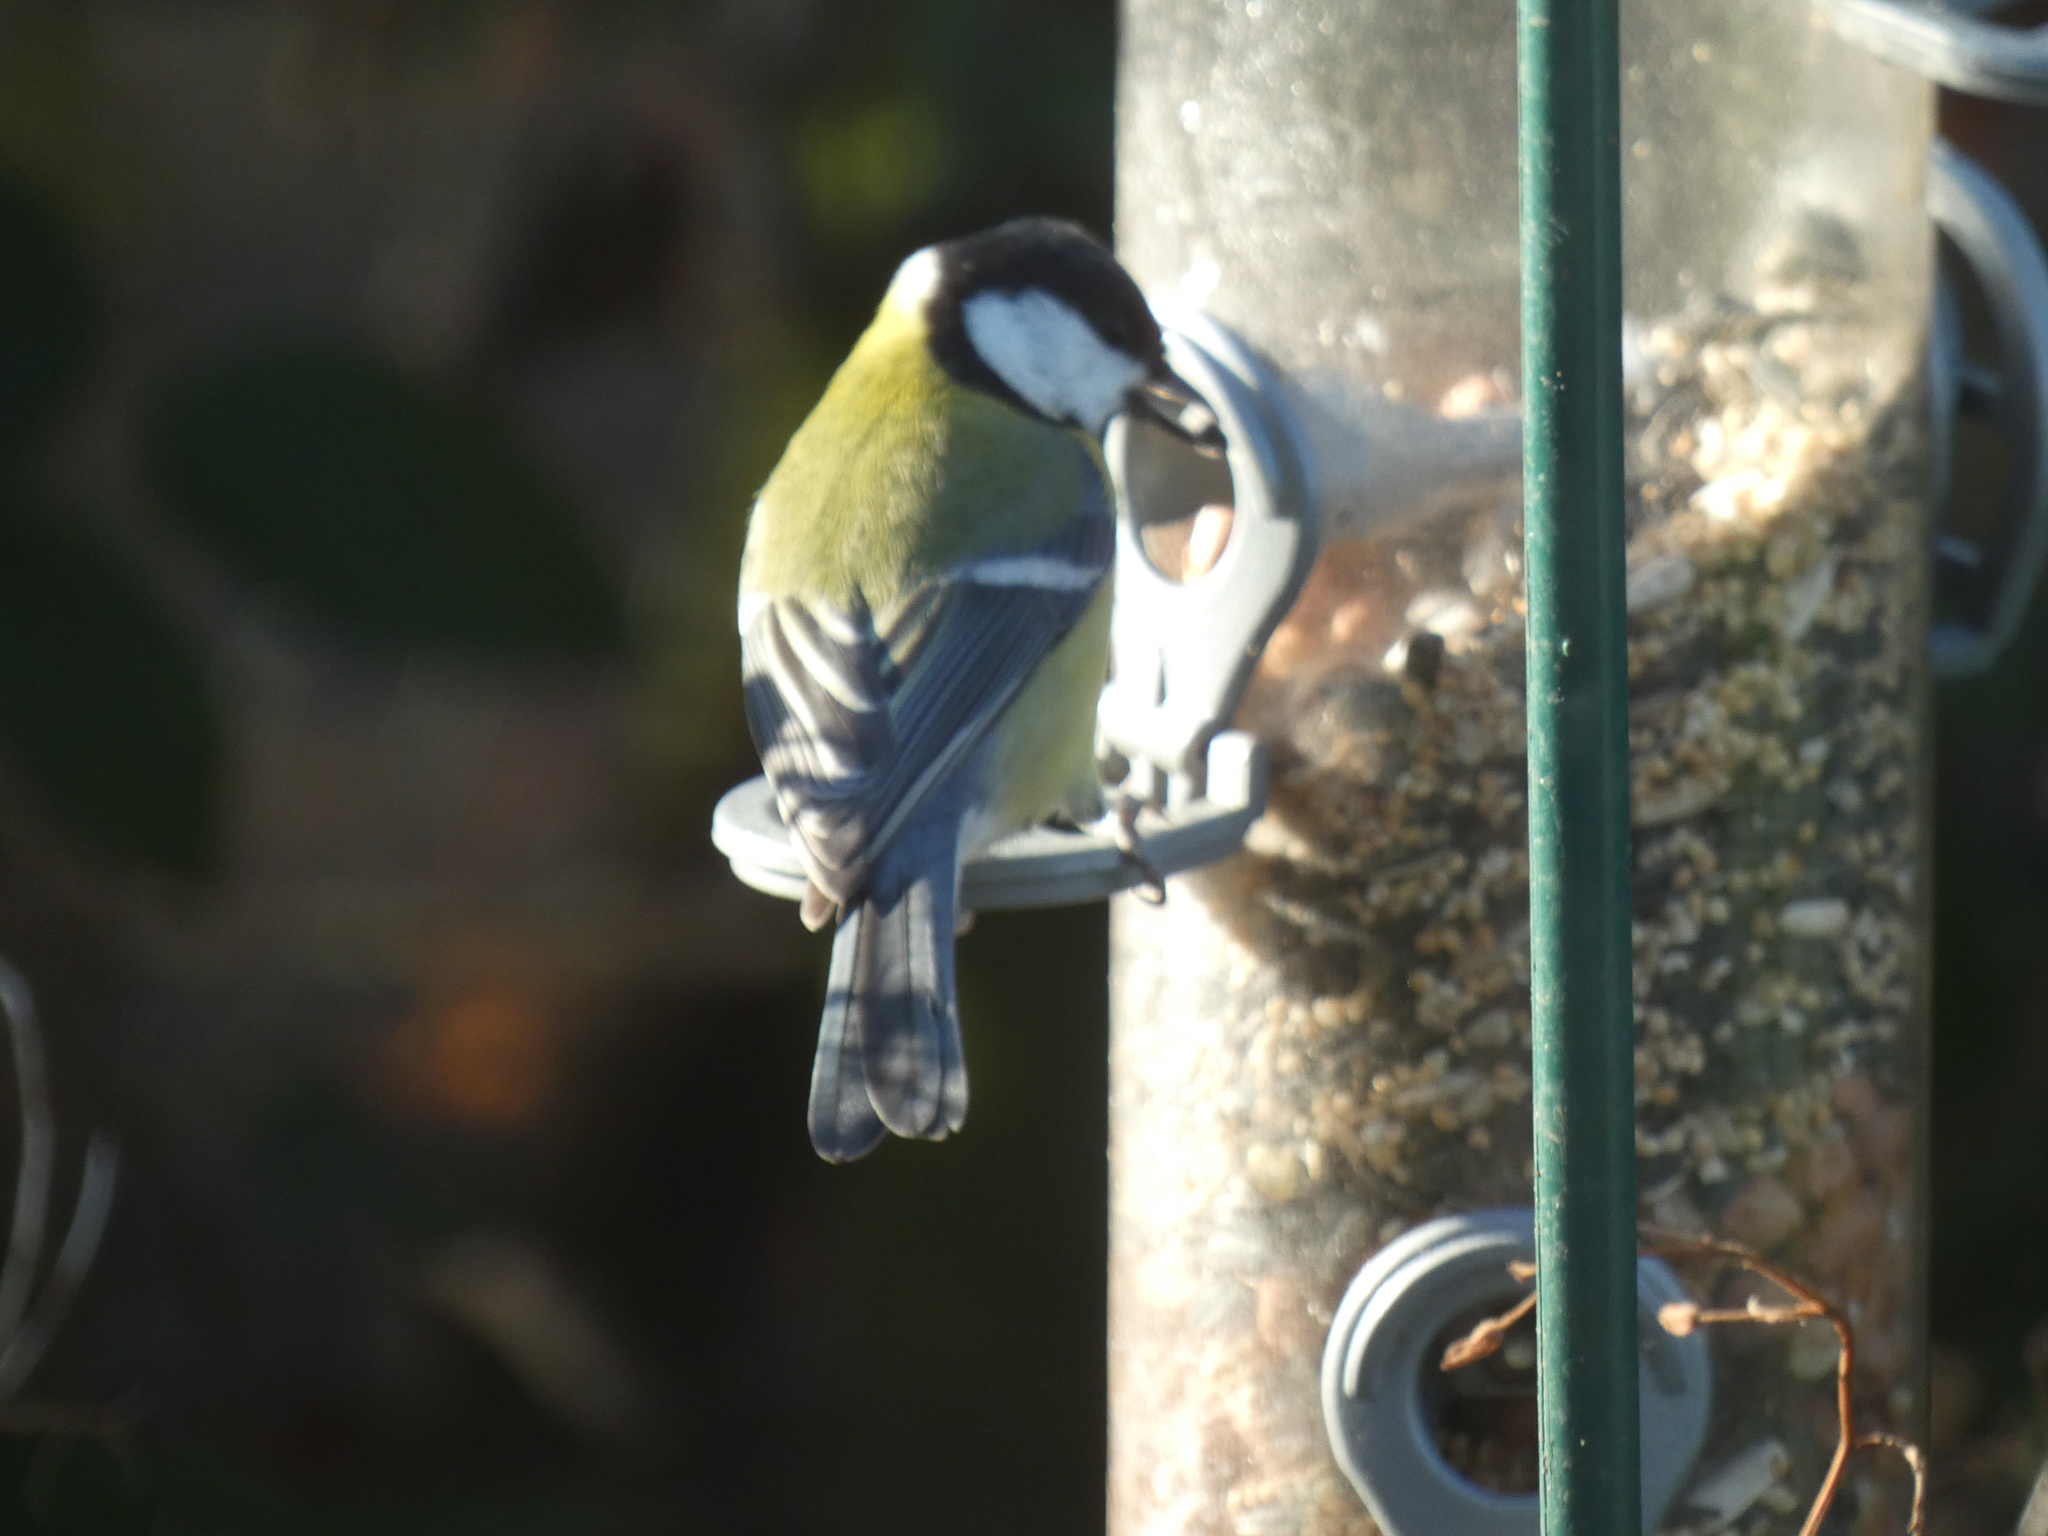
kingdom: Animalia
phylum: Chordata
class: Aves
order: Passeriformes
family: Paridae
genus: Parus
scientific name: Parus major
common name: Great tit
